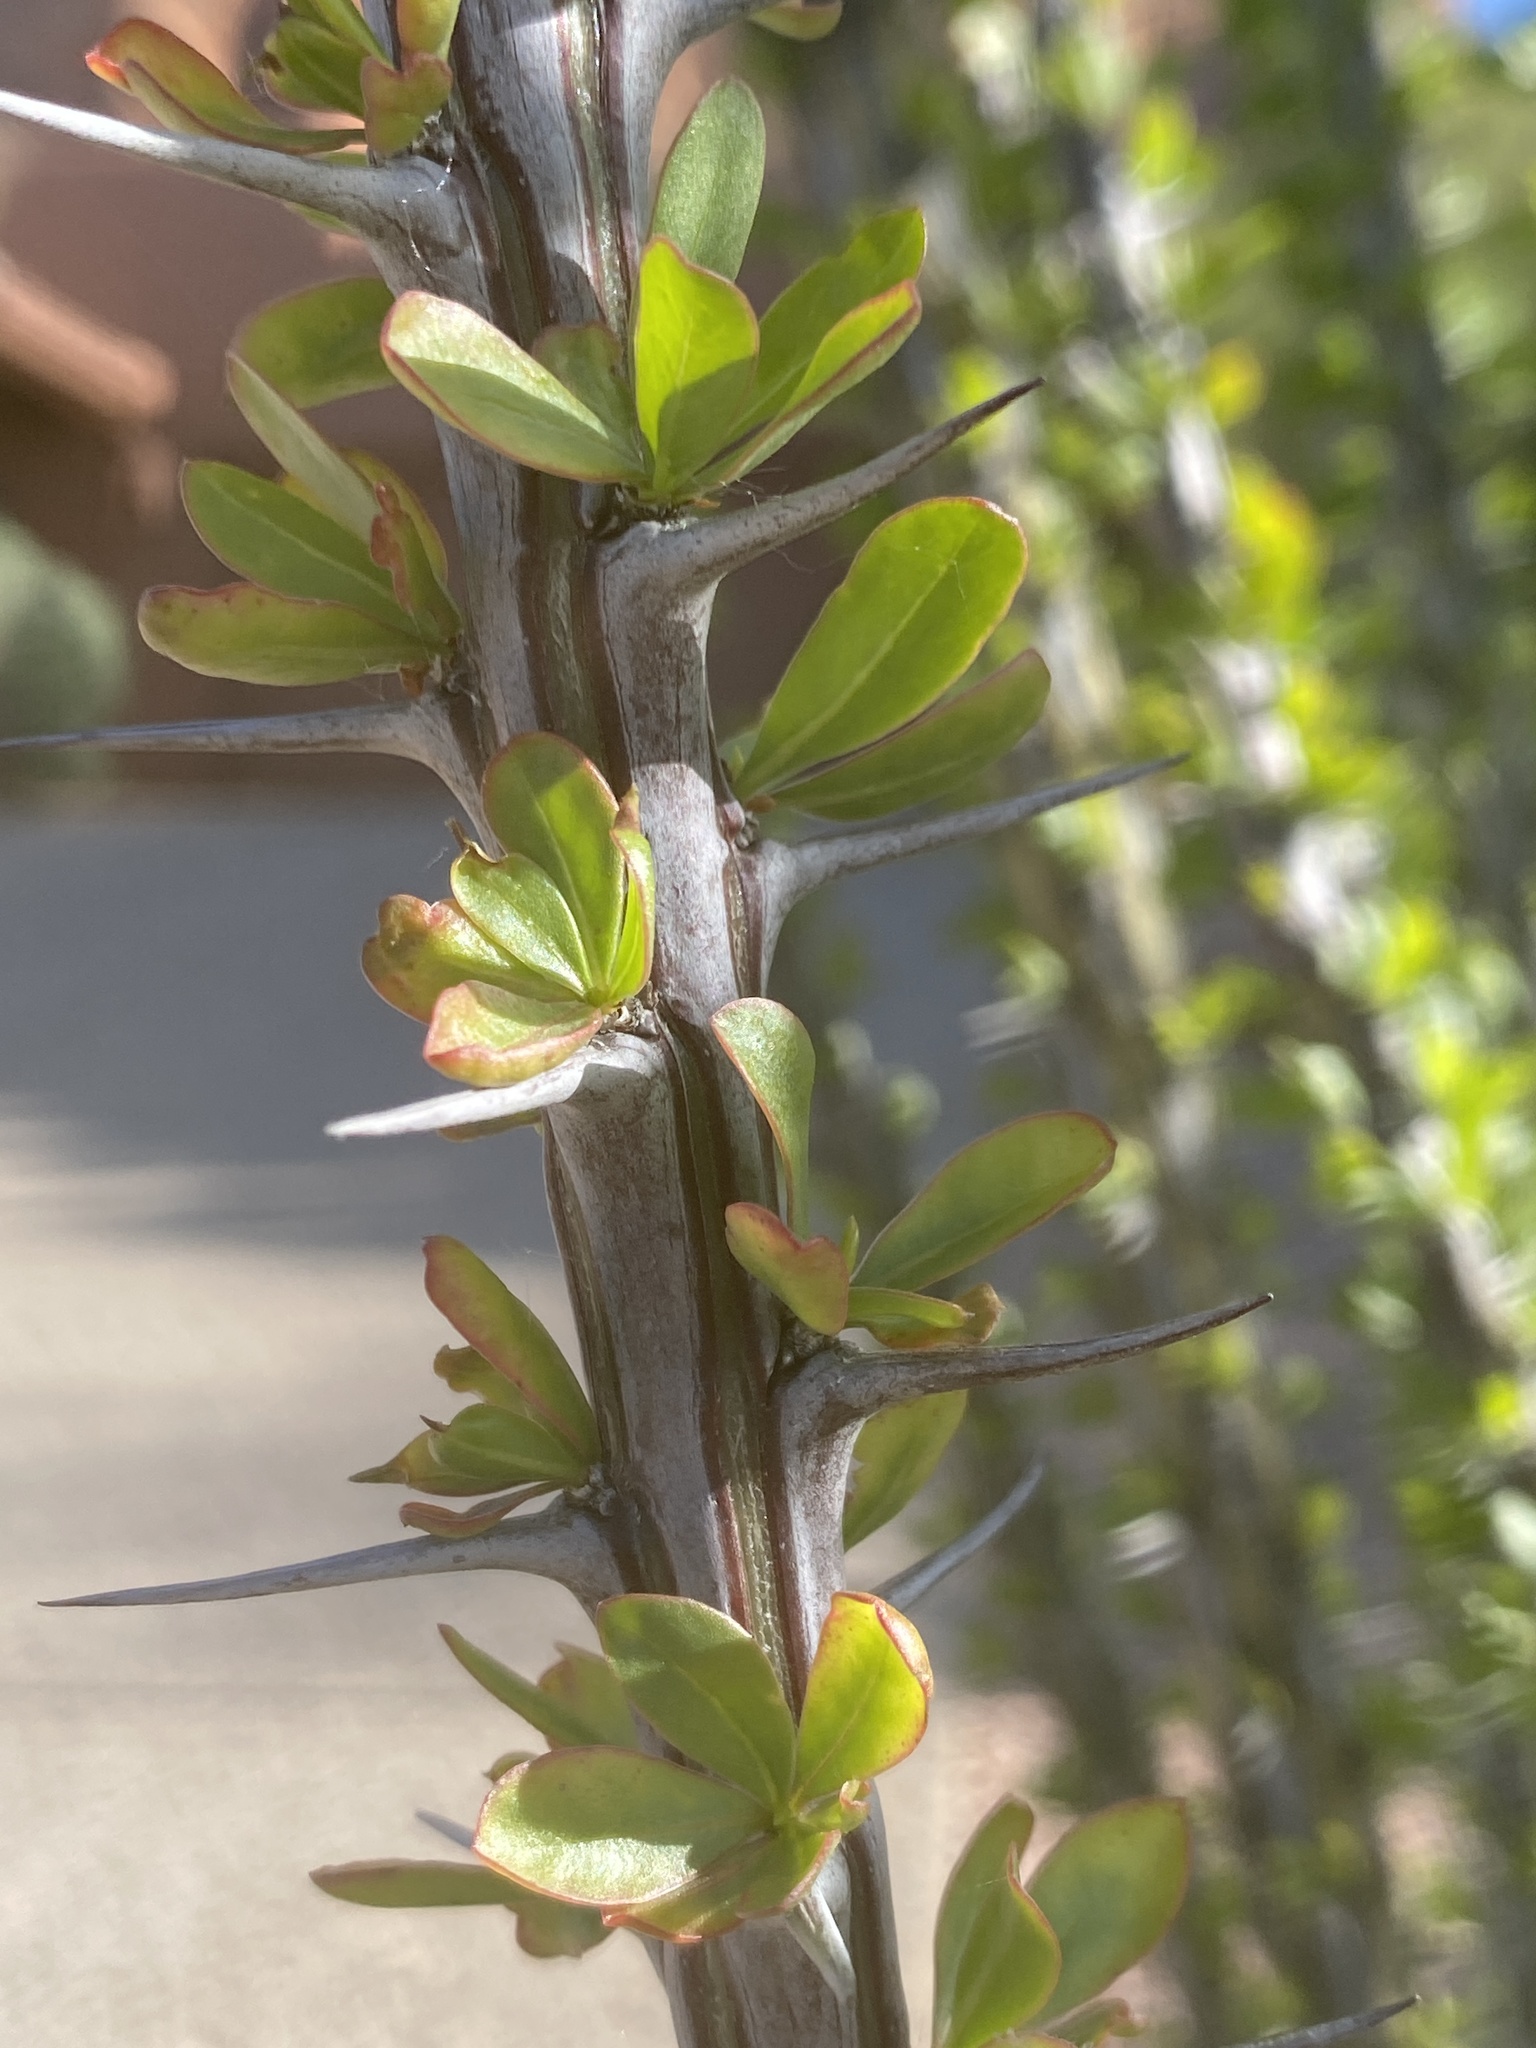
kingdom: Plantae
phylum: Tracheophyta
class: Magnoliopsida
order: Ericales
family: Fouquieriaceae
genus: Fouquieria
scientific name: Fouquieria splendens
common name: Vine-cactus
